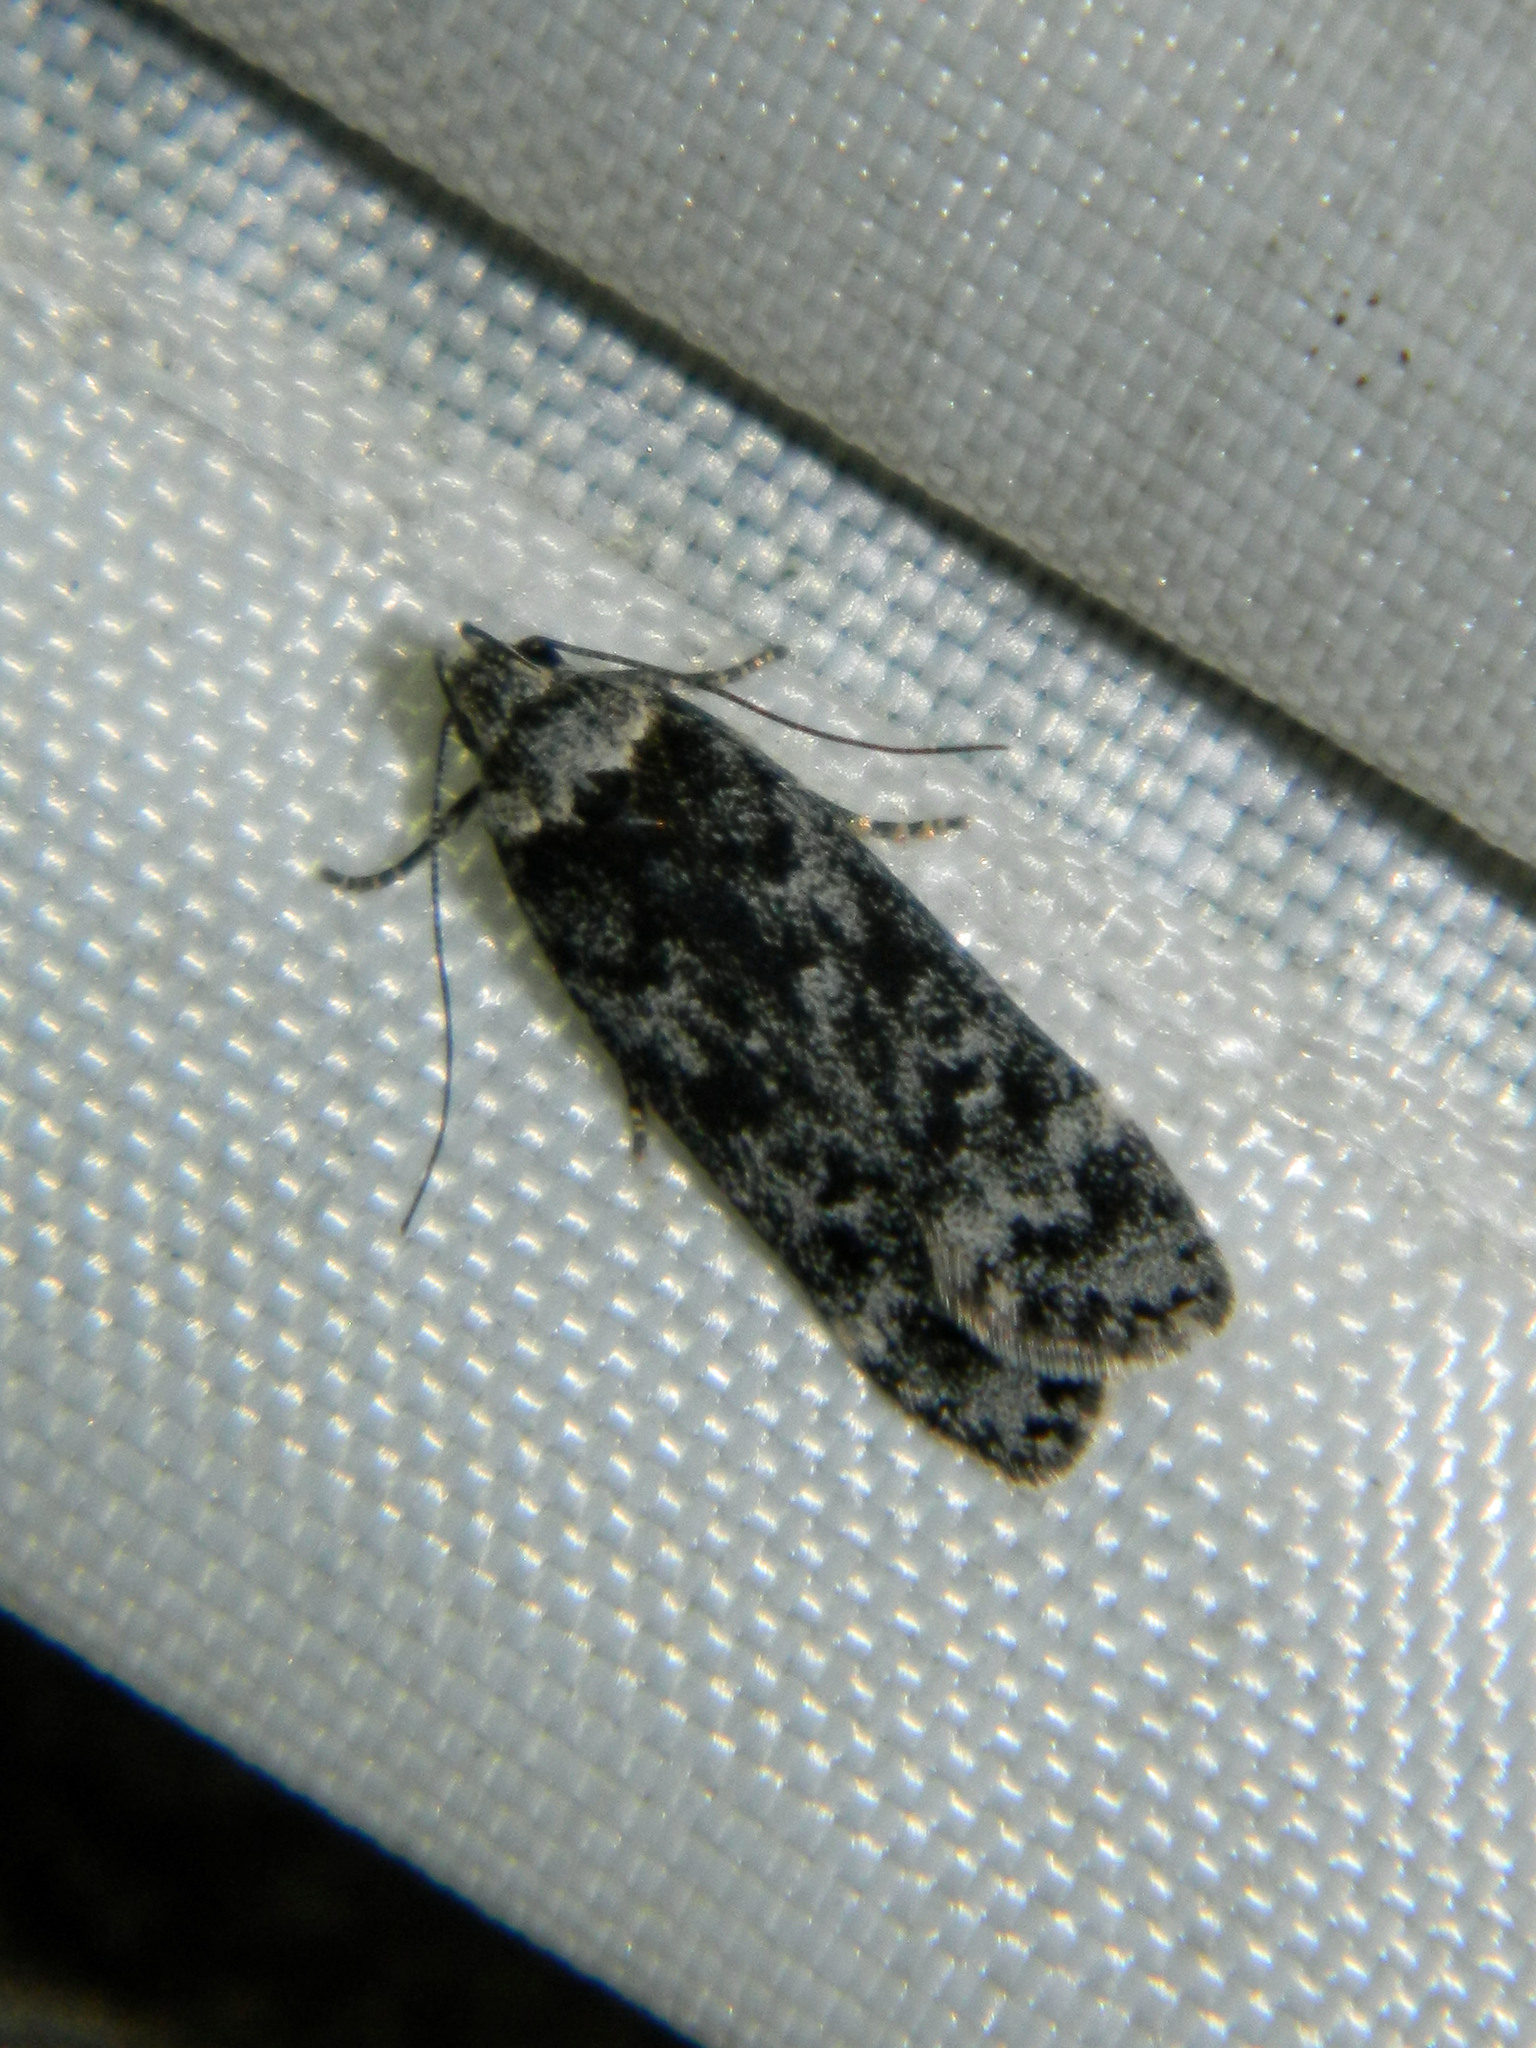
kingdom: Animalia
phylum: Arthropoda
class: Insecta
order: Lepidoptera
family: Gelechiidae
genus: Anacampsis
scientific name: Anacampsis niveopulvella
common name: Pale-headed aspen leafroller moth
